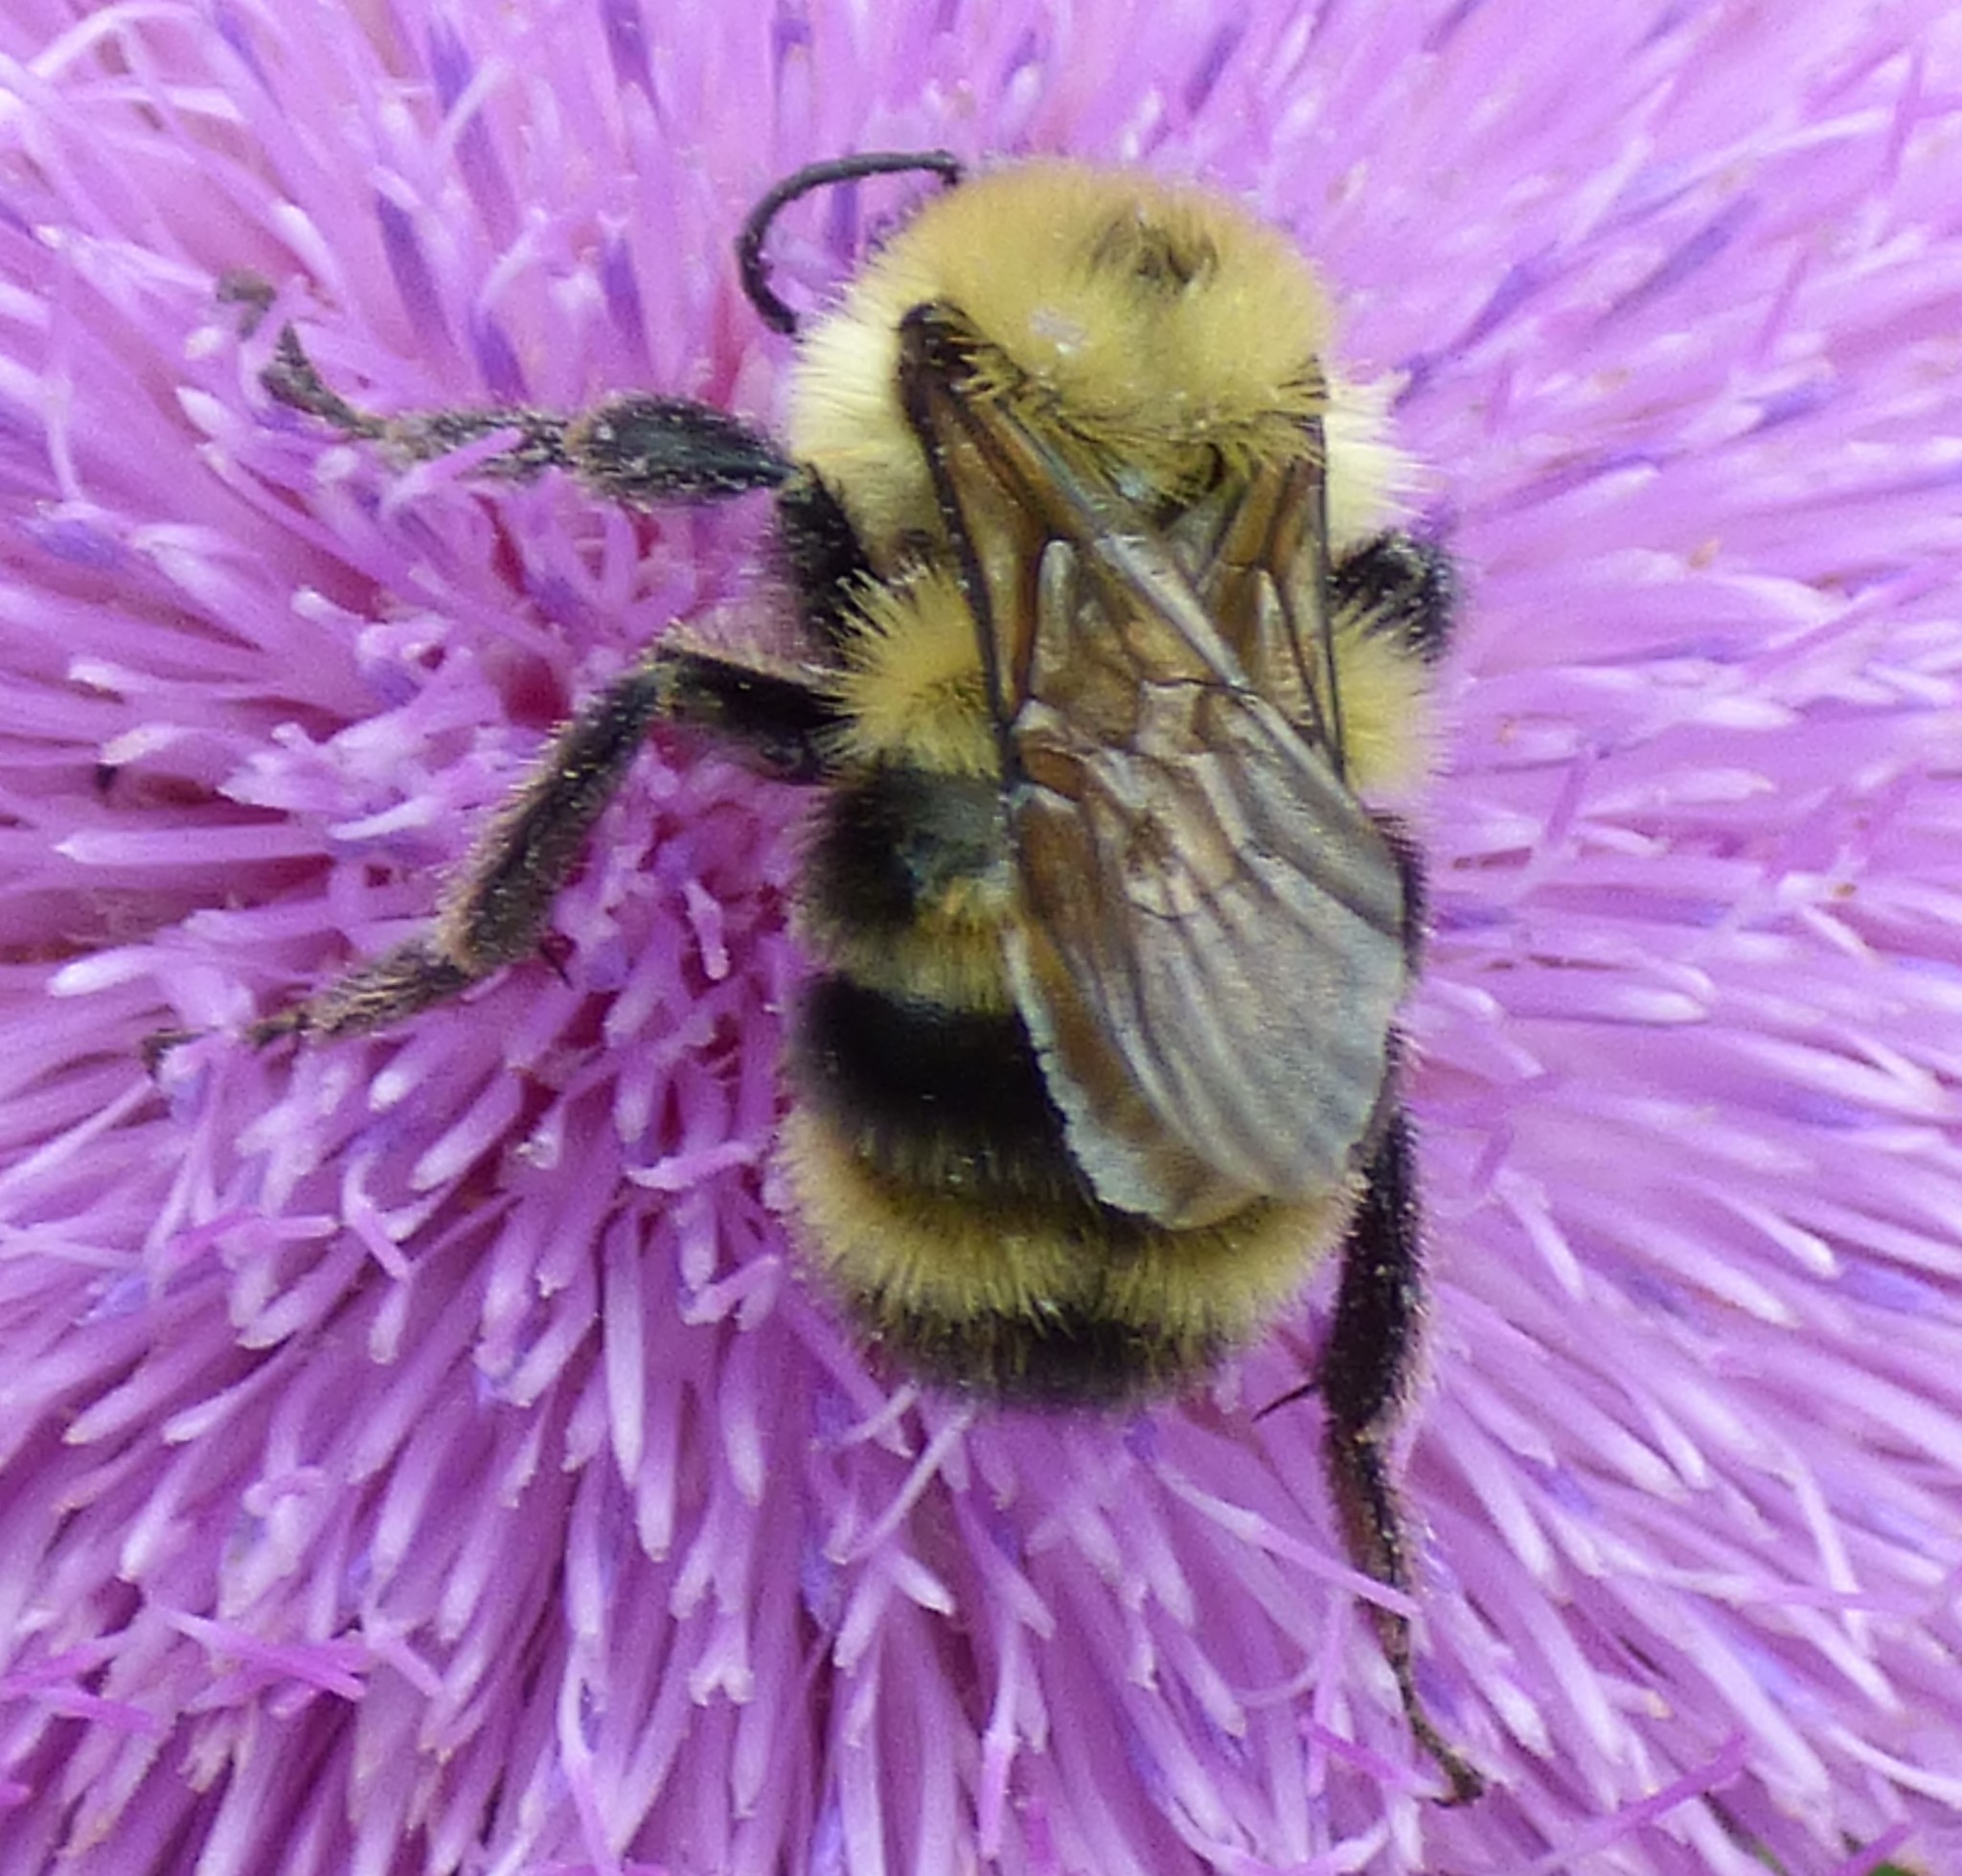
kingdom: Animalia
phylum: Arthropoda
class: Insecta
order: Hymenoptera
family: Apidae
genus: Bombus
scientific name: Bombus bimaculatus
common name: Two-spotted bumble bee
